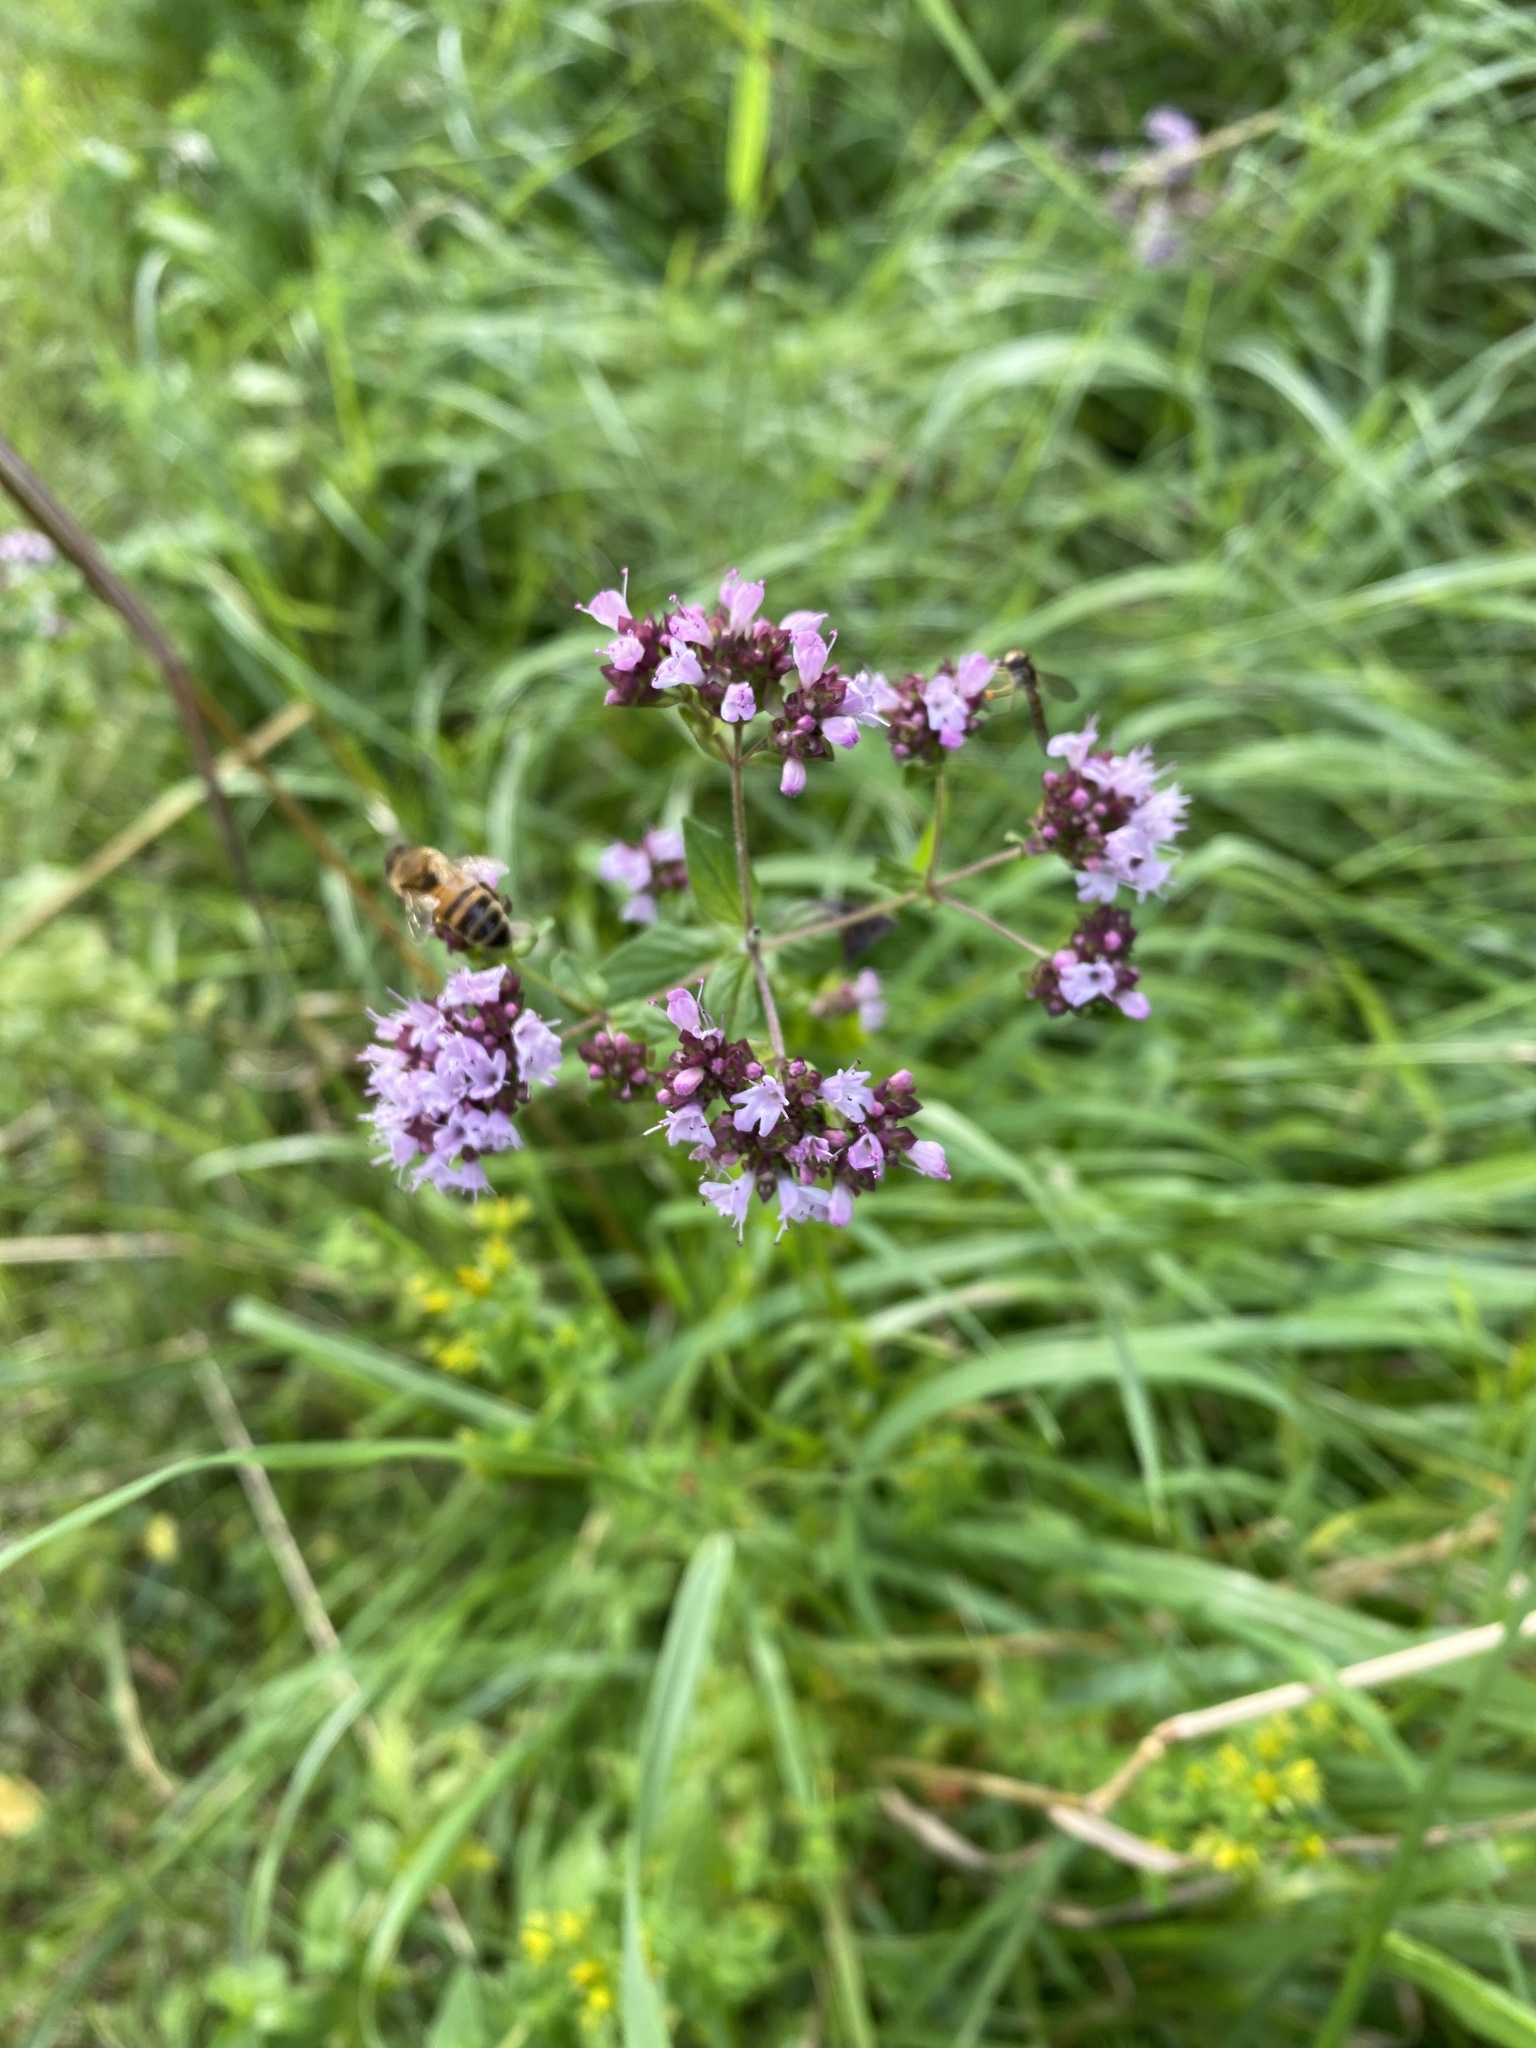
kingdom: Plantae
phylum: Tracheophyta
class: Magnoliopsida
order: Lamiales
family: Lamiaceae
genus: Origanum
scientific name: Origanum vulgare
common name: Wild marjoram
